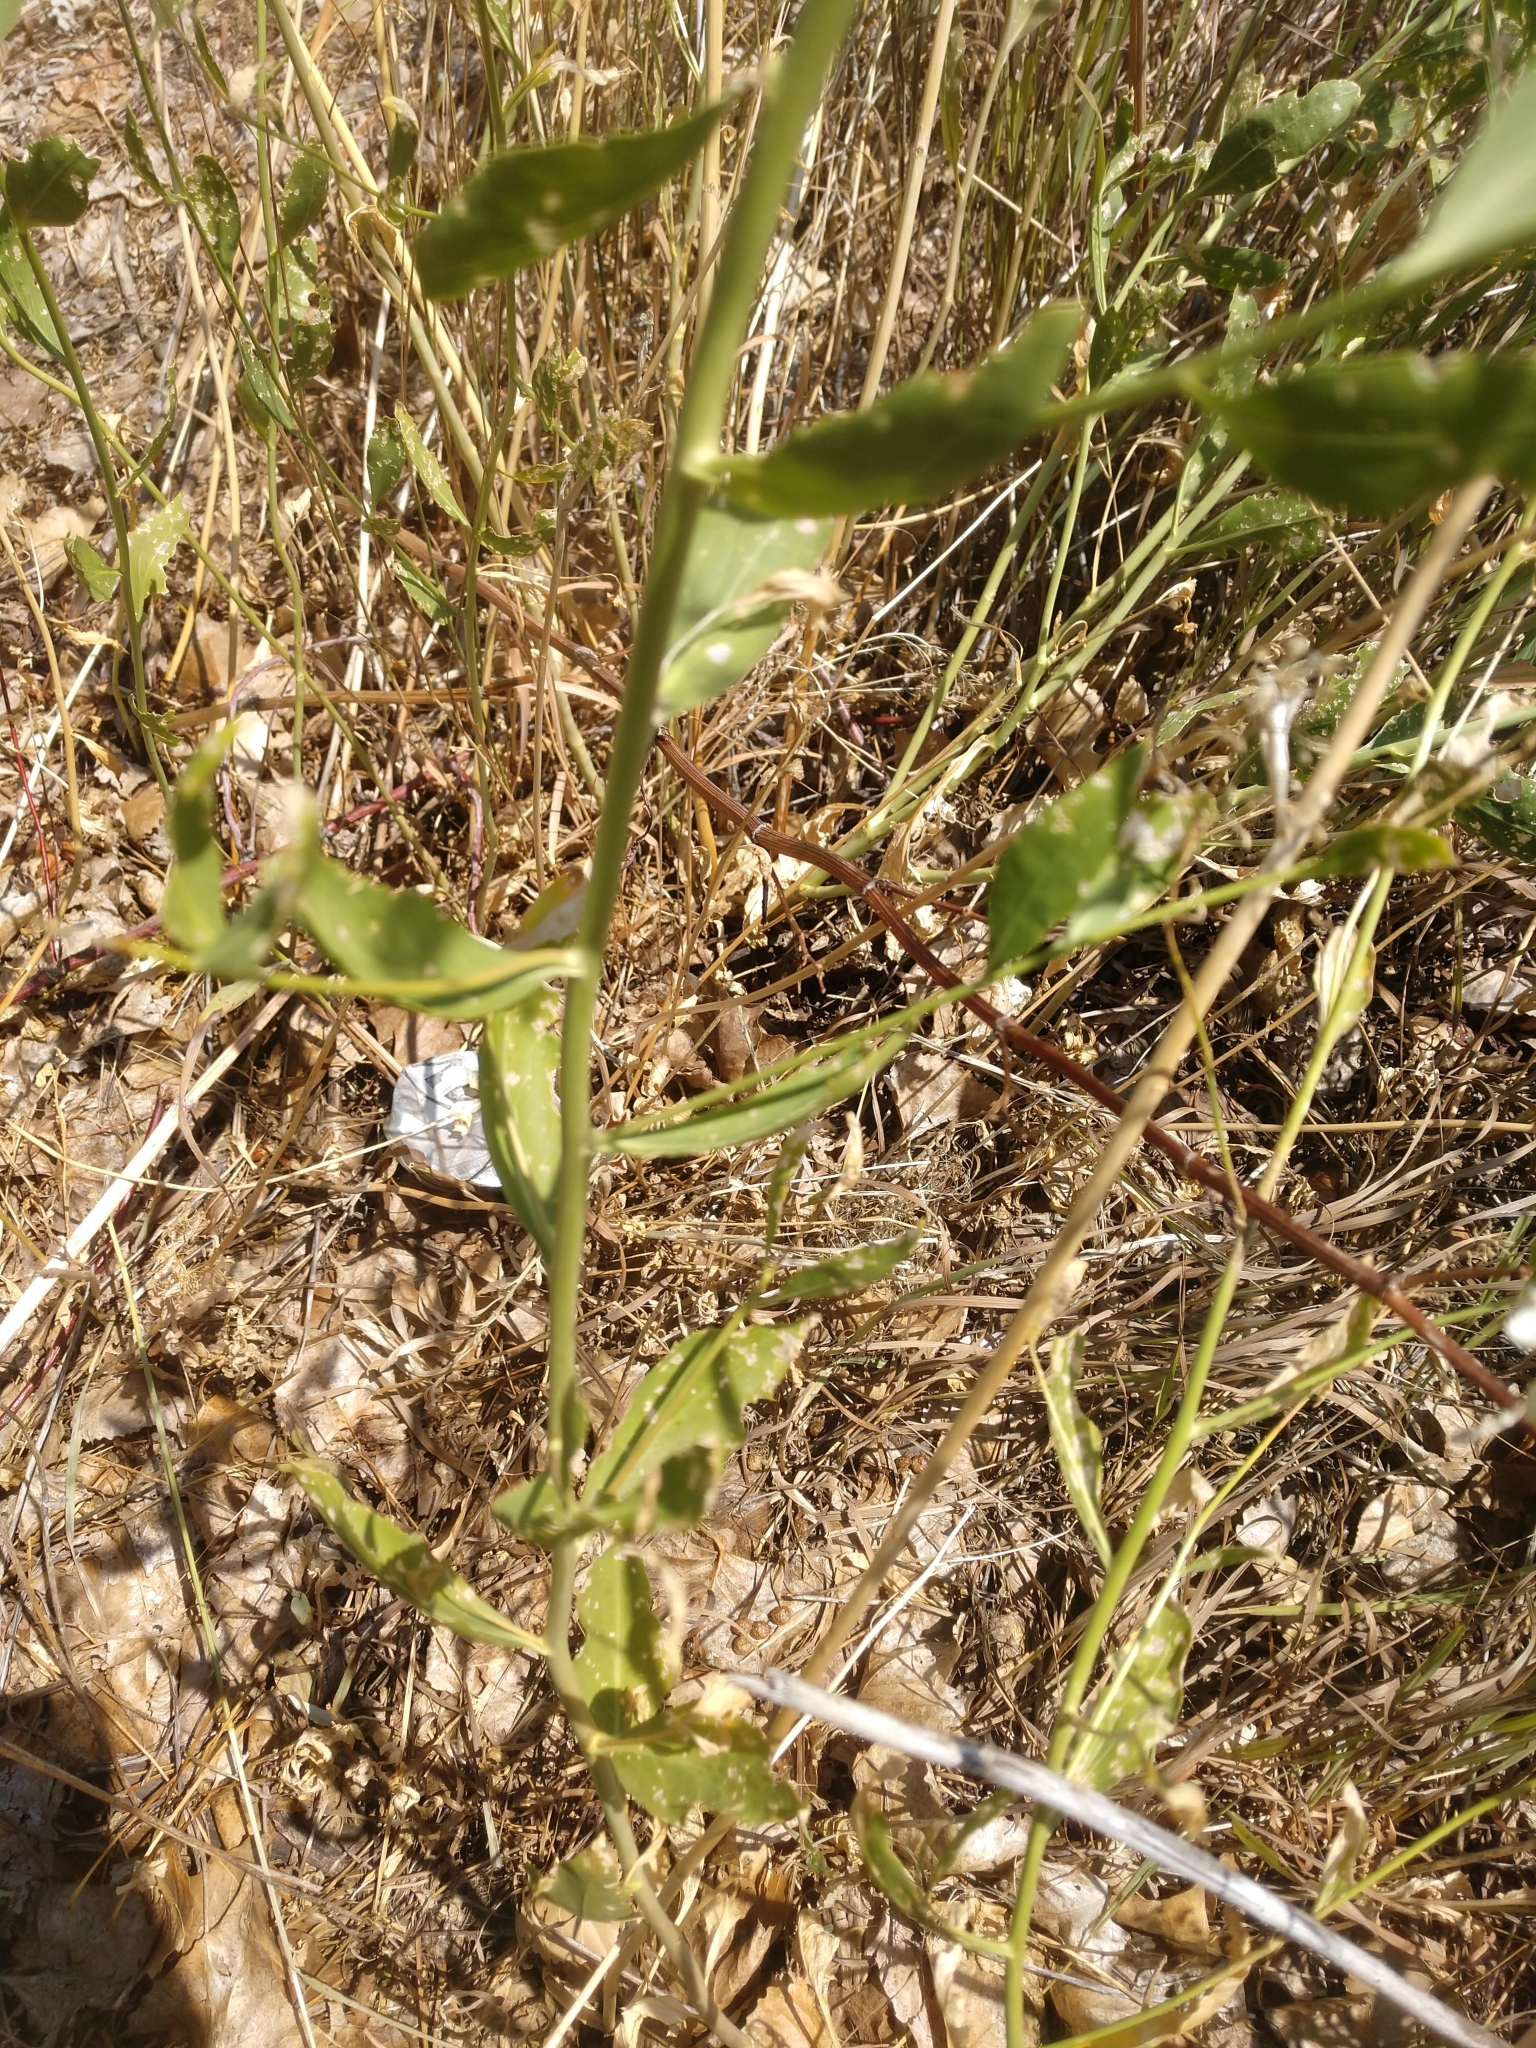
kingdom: Plantae
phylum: Tracheophyta
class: Magnoliopsida
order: Brassicales
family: Brassicaceae
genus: Lepidium
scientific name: Lepidium latifolium
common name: Dittander
